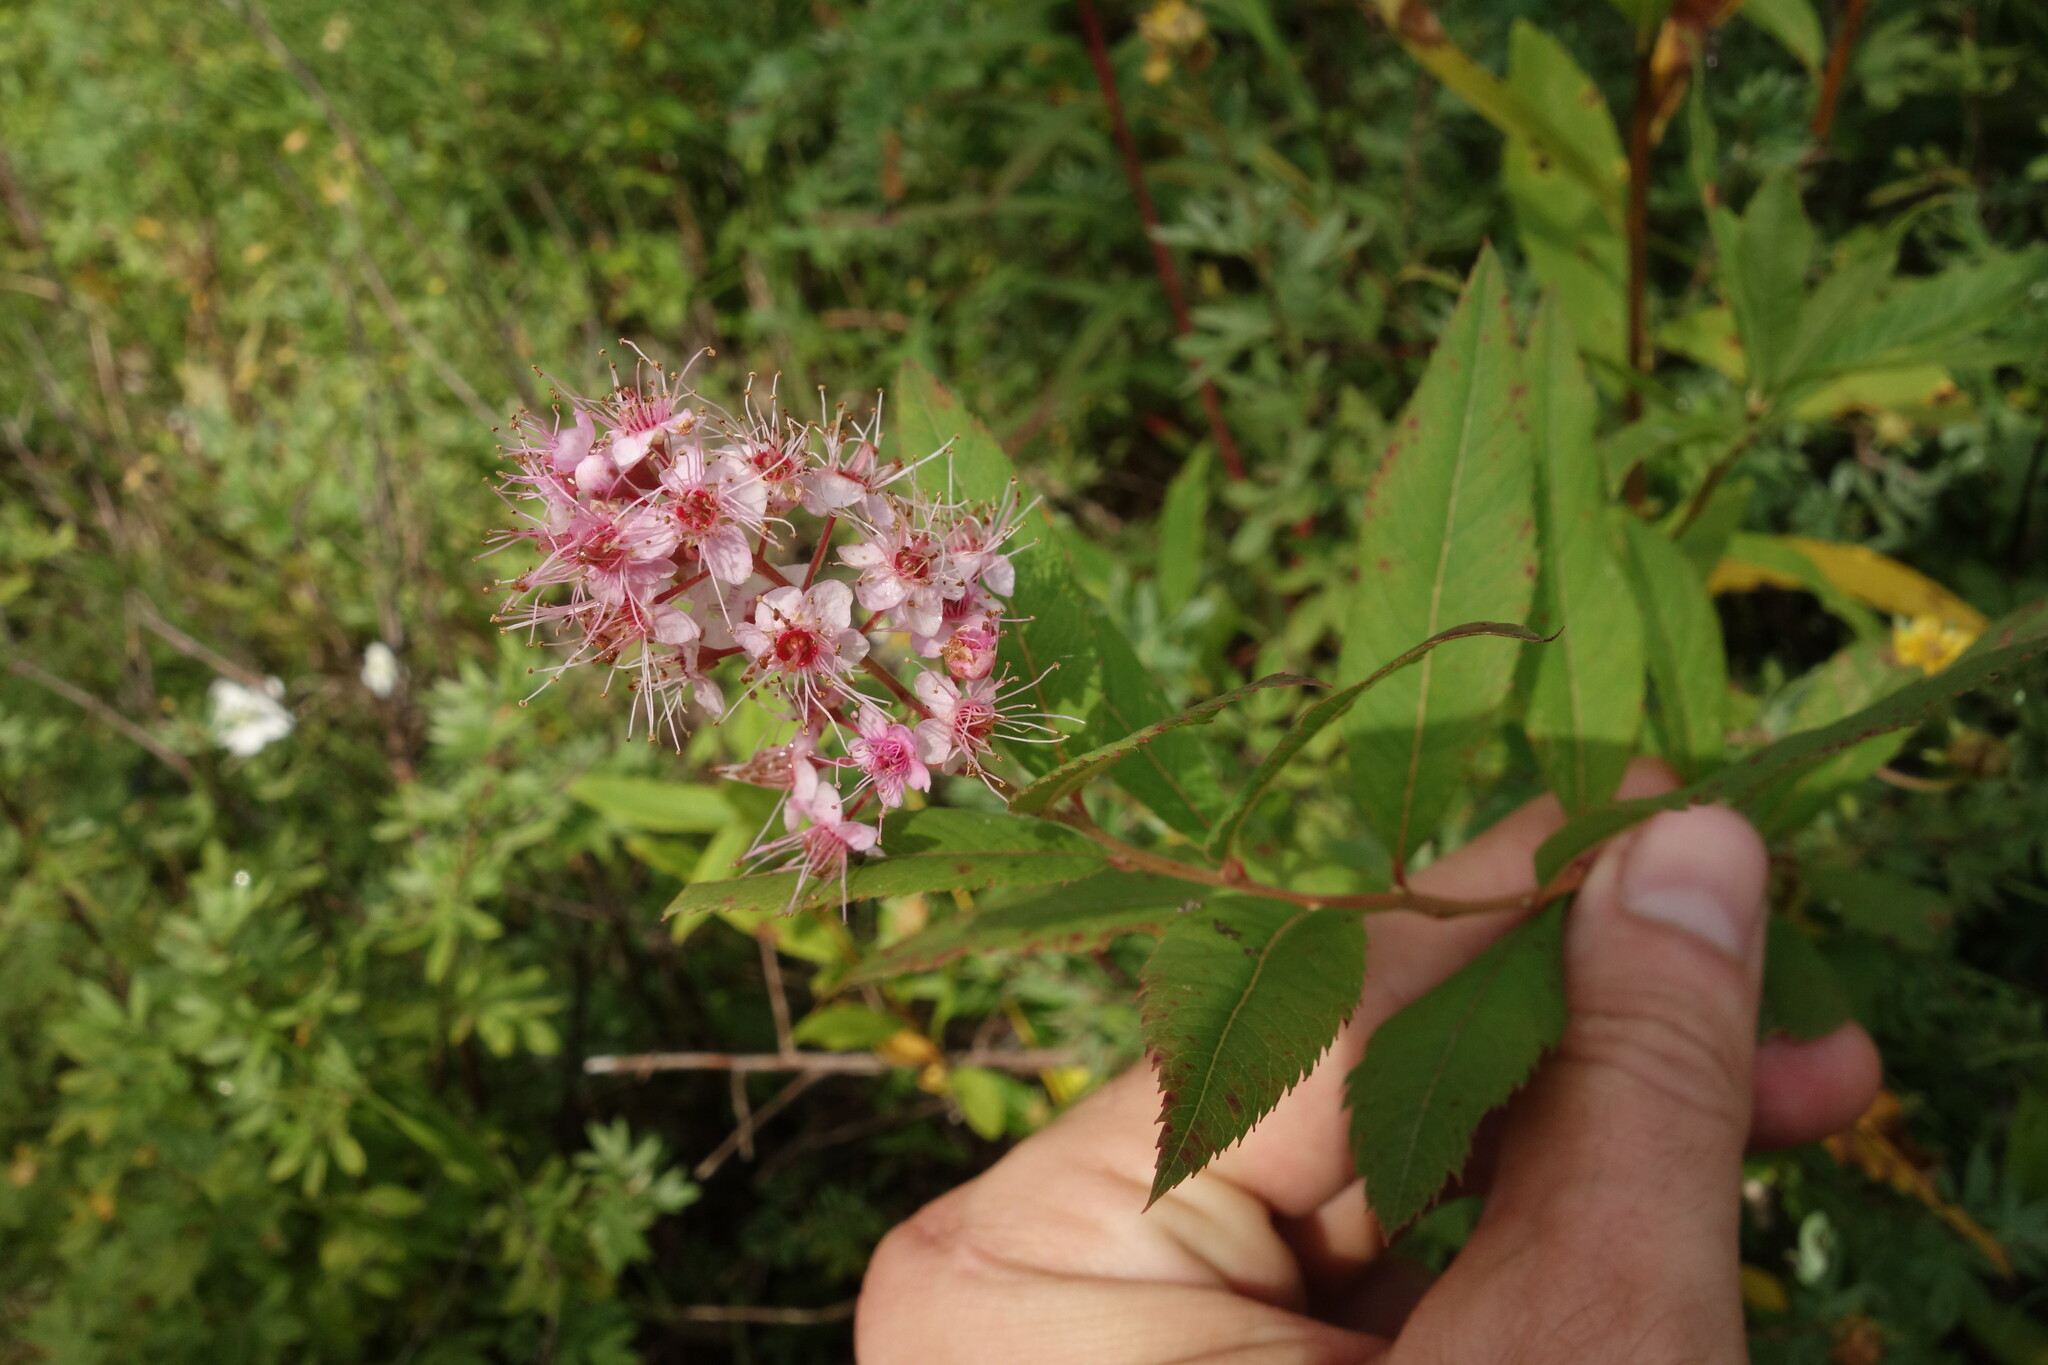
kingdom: Plantae
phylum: Tracheophyta
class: Magnoliopsida
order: Rosales
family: Rosaceae
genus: Spiraea
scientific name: Spiraea salicifolia
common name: Bridewort
